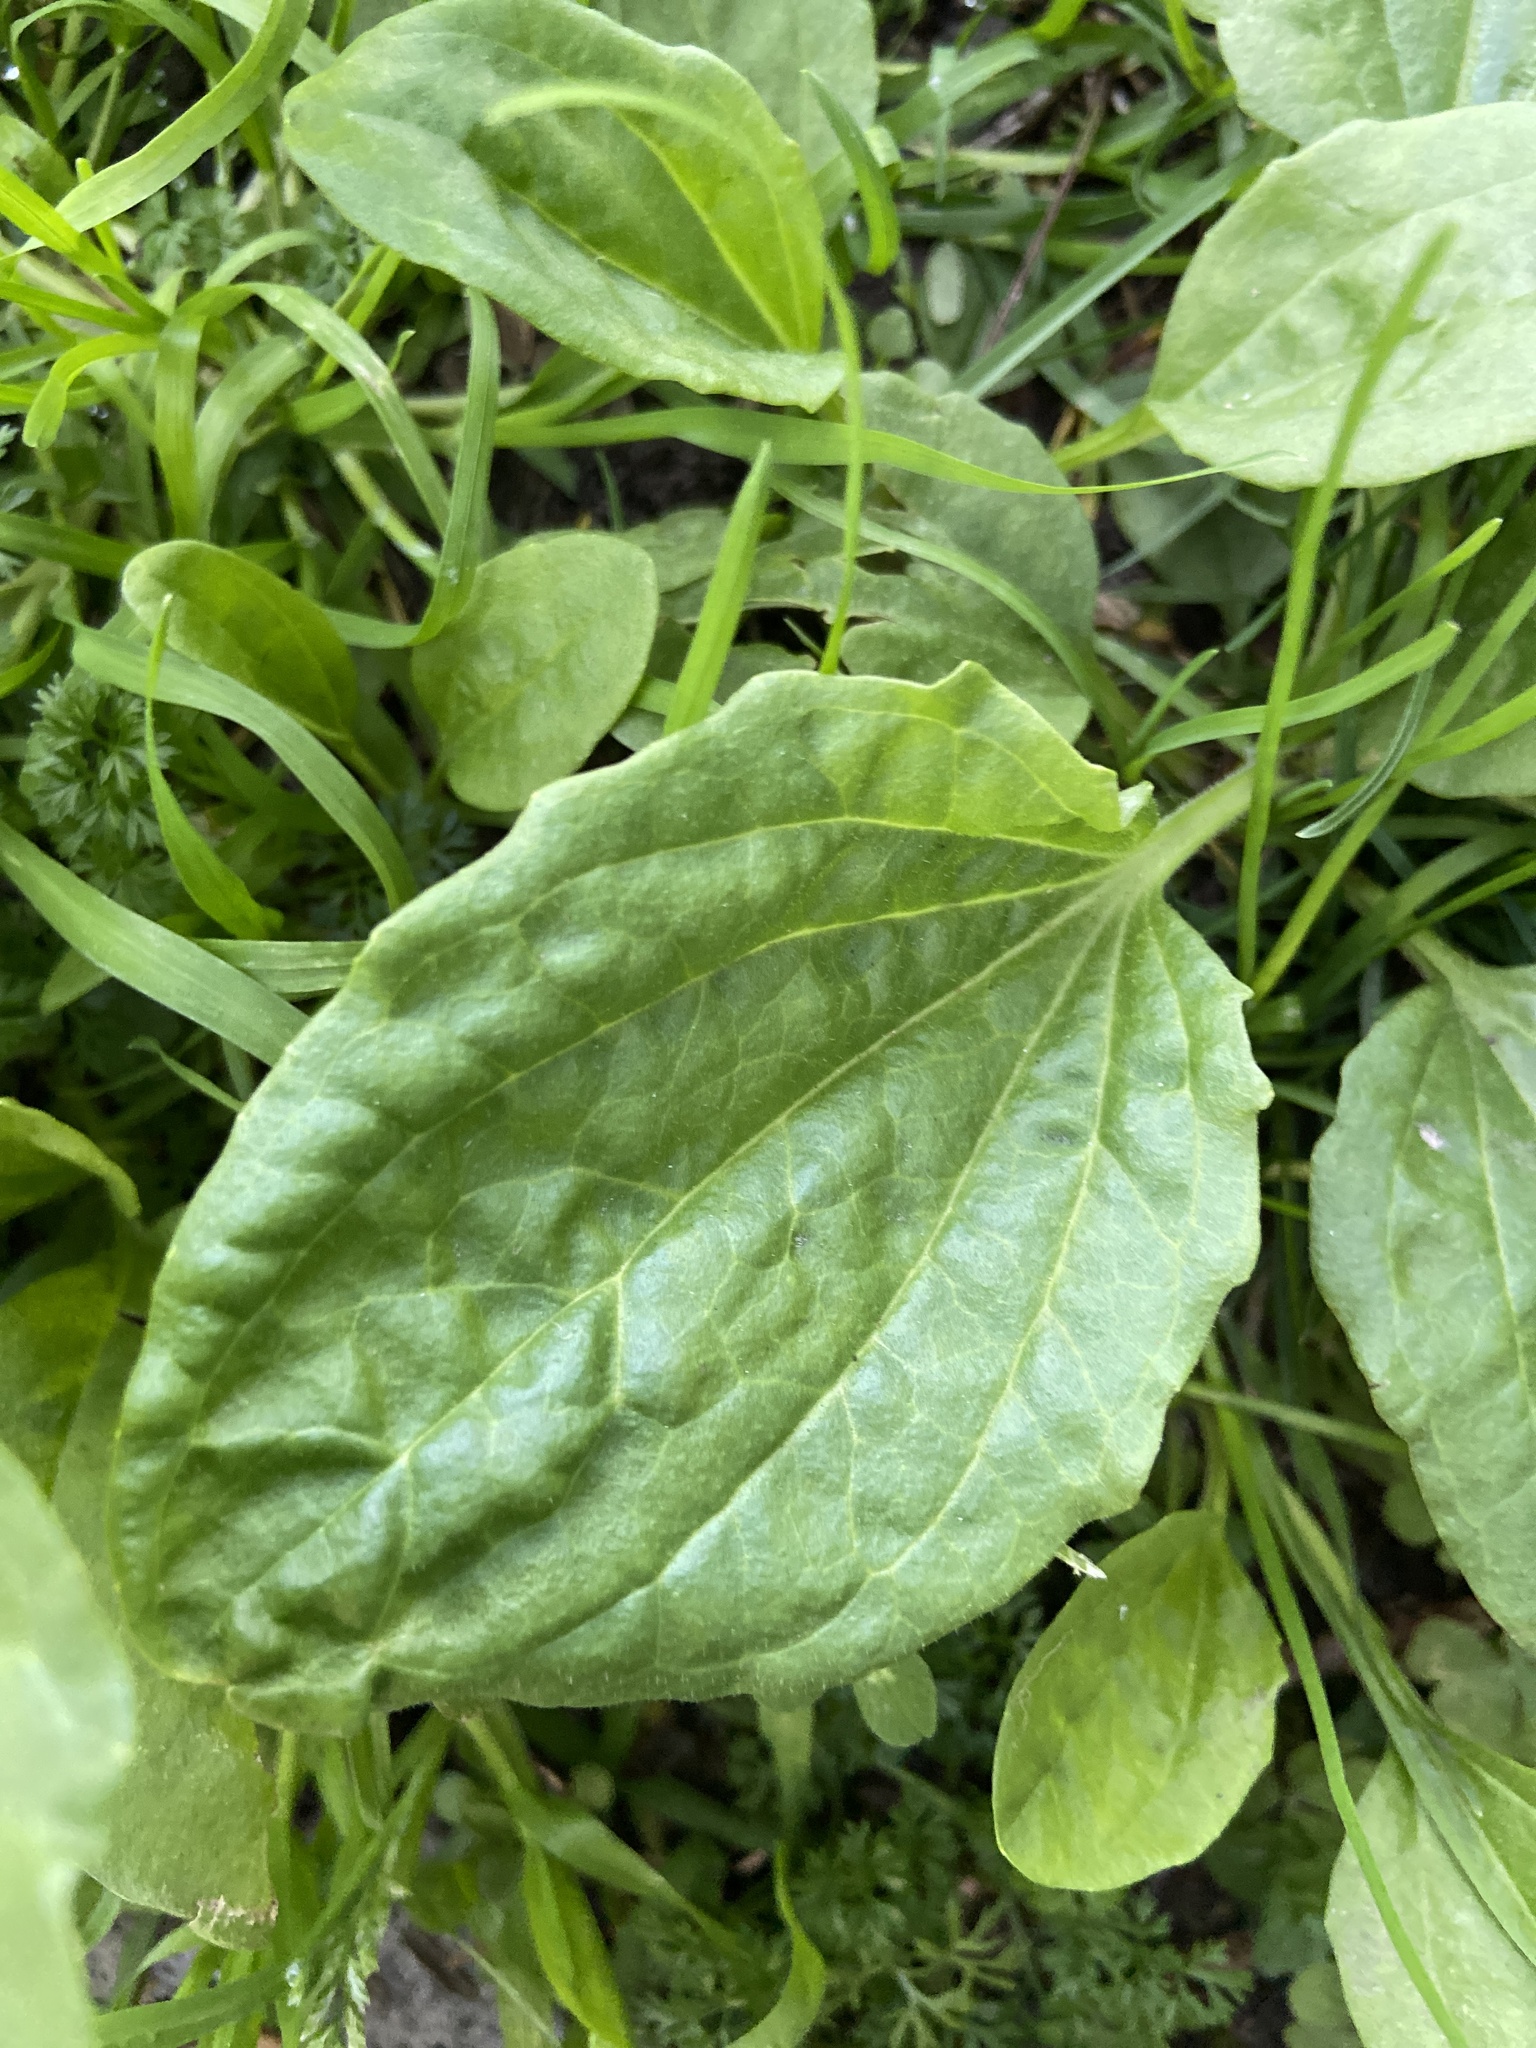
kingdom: Plantae
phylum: Tracheophyta
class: Magnoliopsida
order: Lamiales
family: Plantaginaceae
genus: Plantago
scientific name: Plantago major
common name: Common plantain
